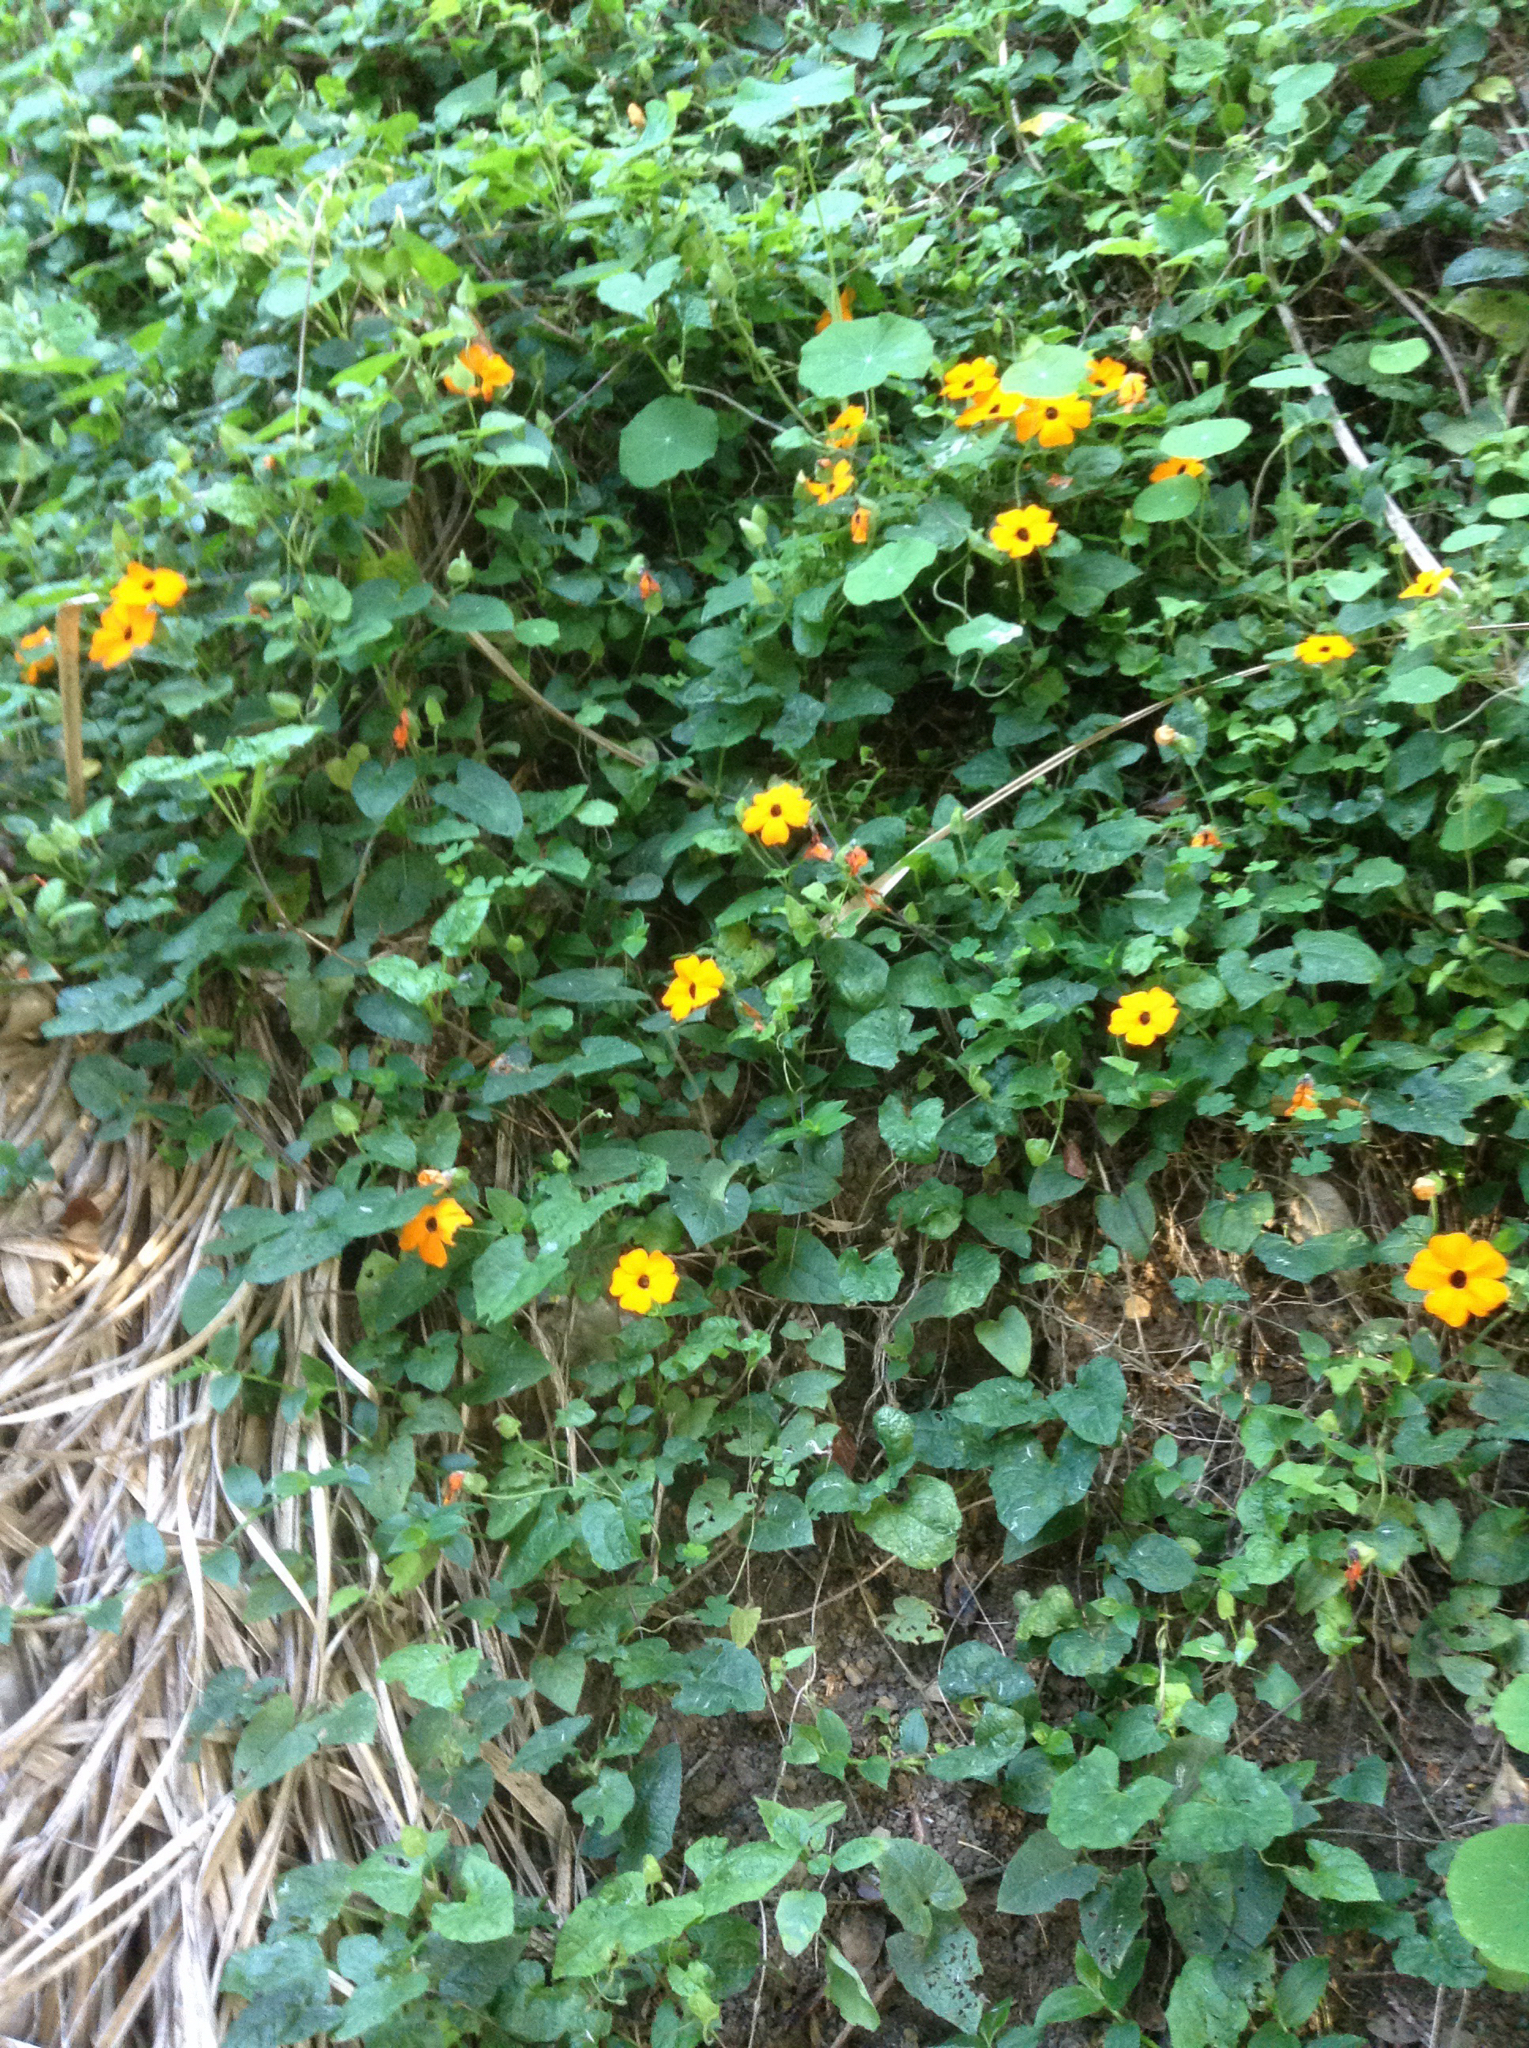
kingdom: Plantae
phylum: Tracheophyta
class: Magnoliopsida
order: Lamiales
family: Acanthaceae
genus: Thunbergia
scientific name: Thunbergia alata
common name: Blackeyed susan vine
